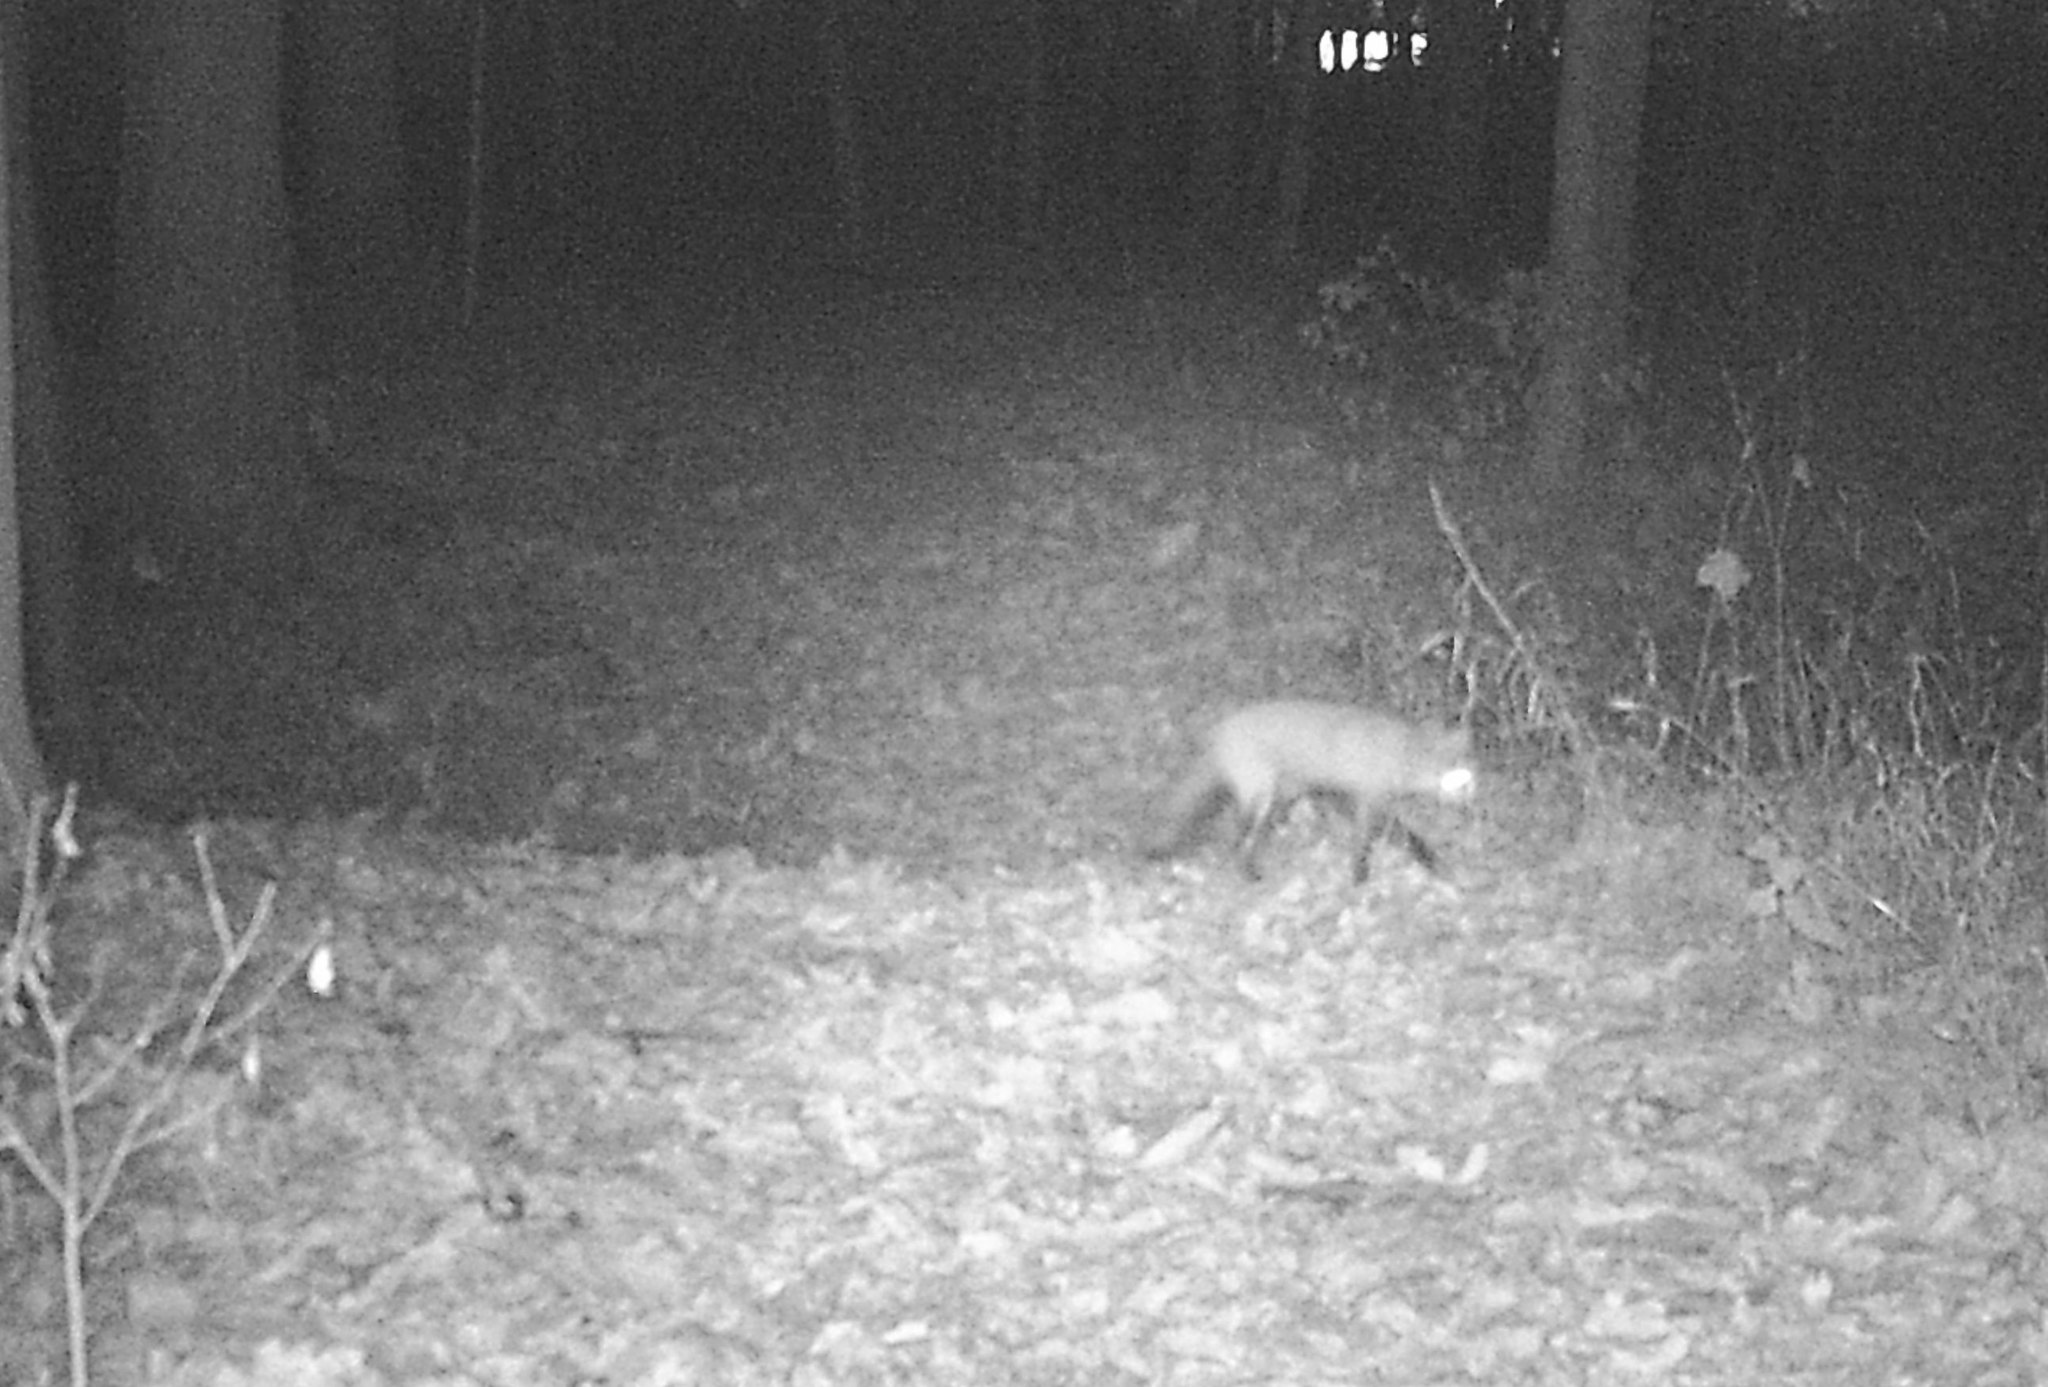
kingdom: Animalia
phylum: Chordata
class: Mammalia
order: Carnivora
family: Canidae
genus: Vulpes
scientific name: Vulpes vulpes
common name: Red fox
